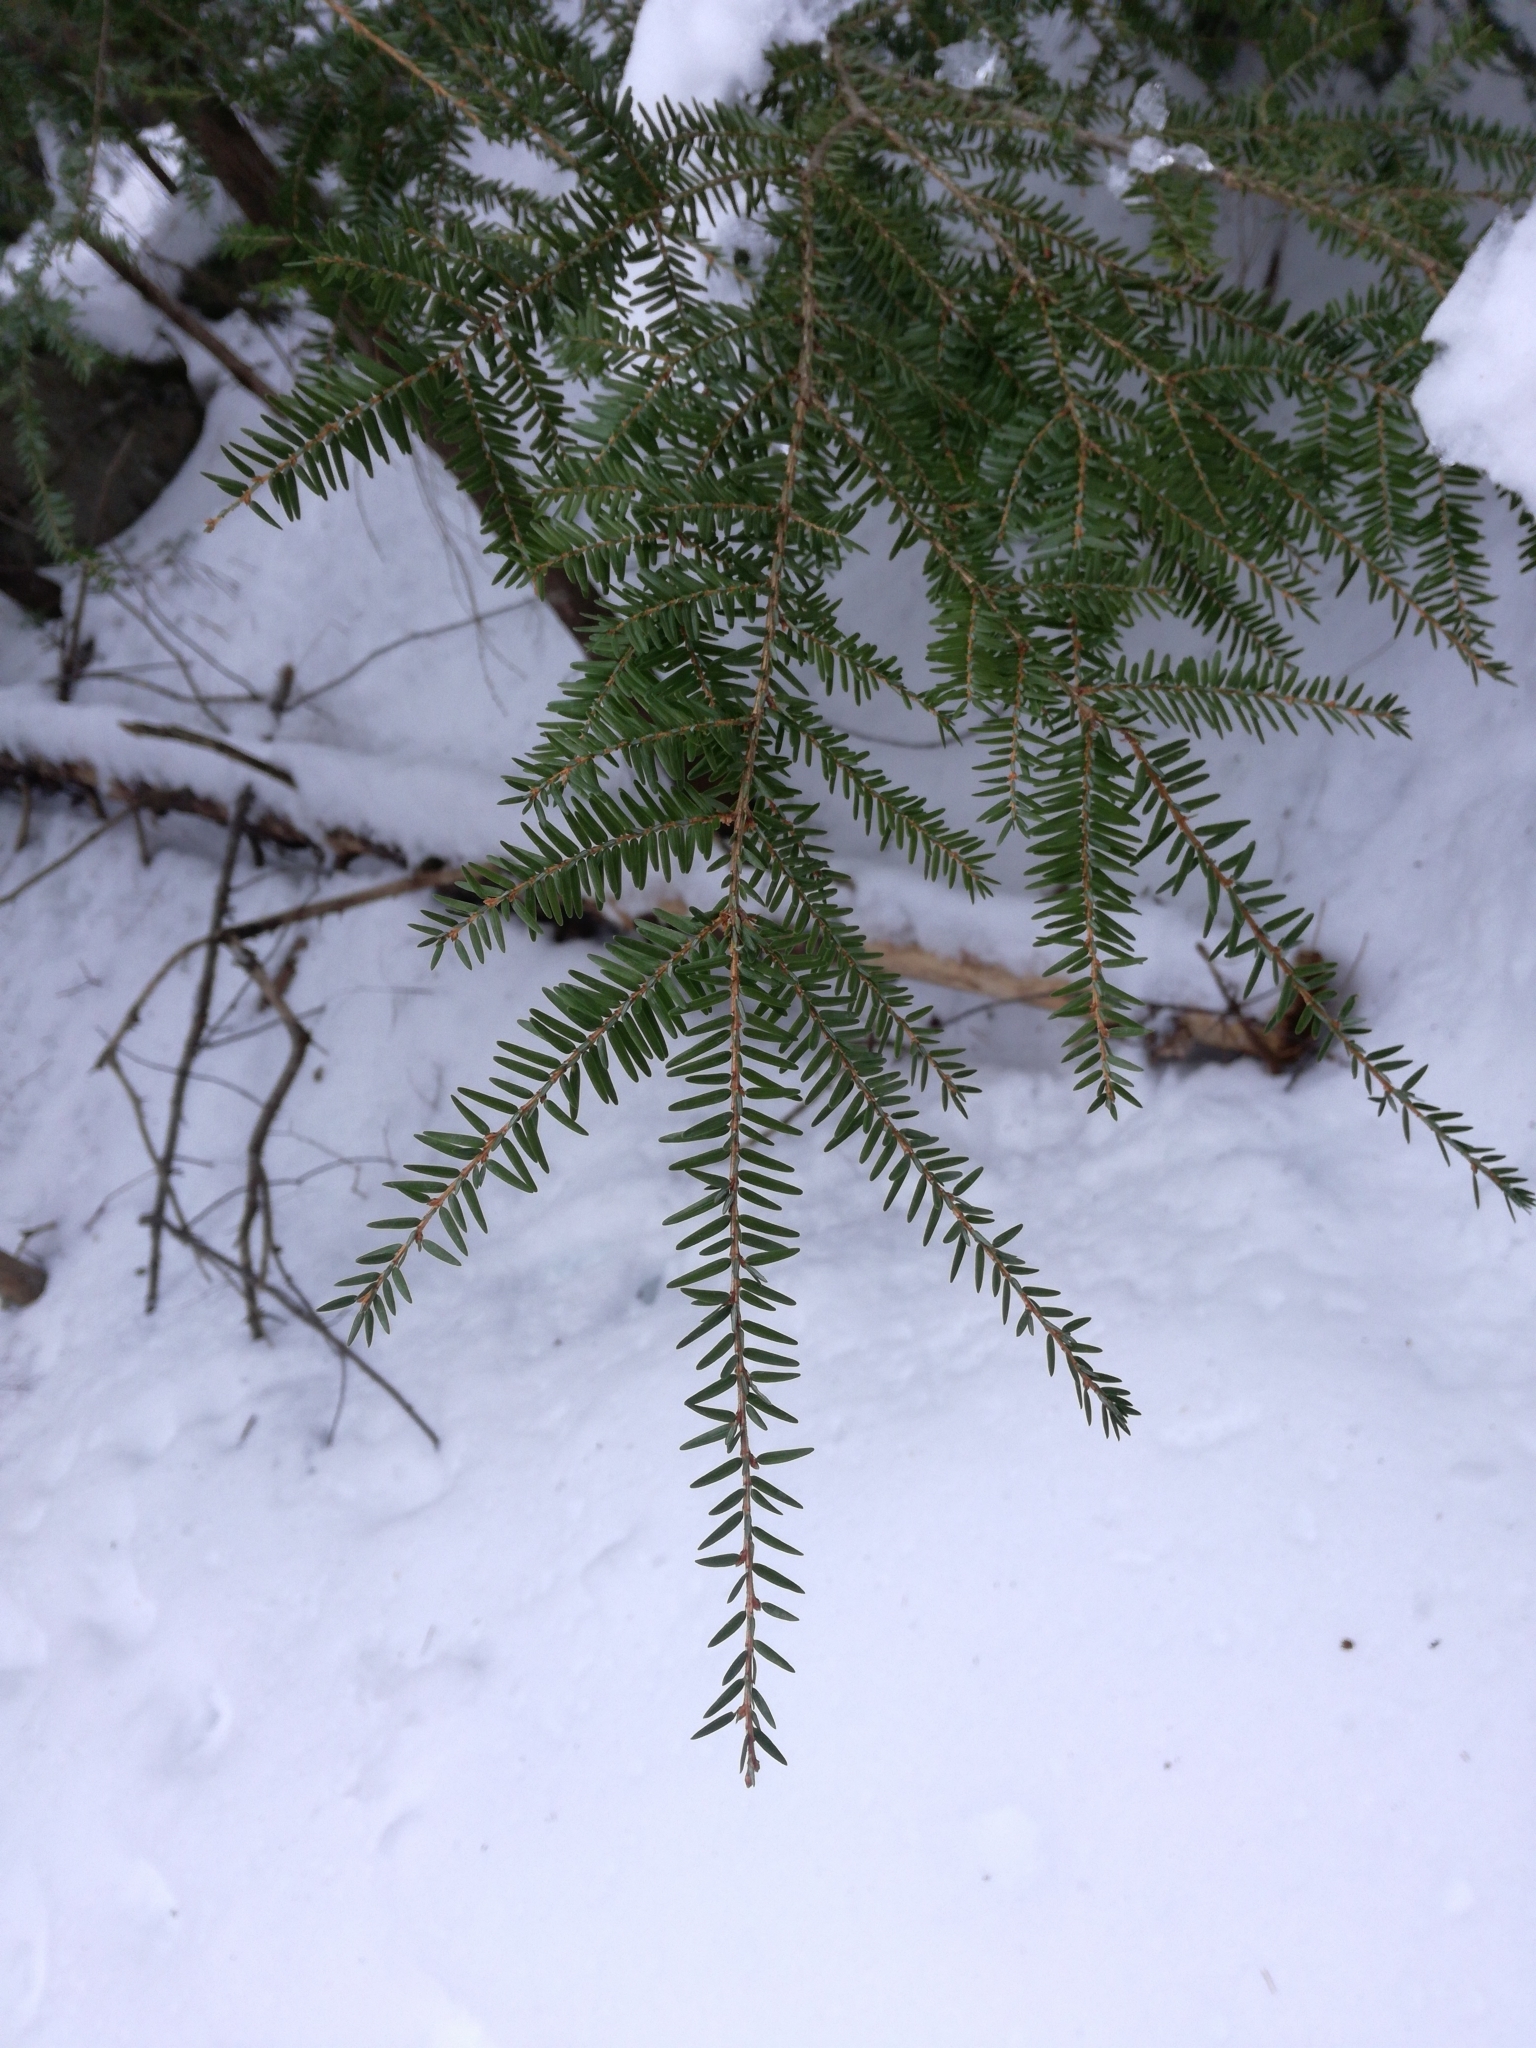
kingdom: Plantae
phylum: Tracheophyta
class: Pinopsida
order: Pinales
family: Pinaceae
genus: Tsuga
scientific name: Tsuga canadensis
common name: Eastern hemlock
